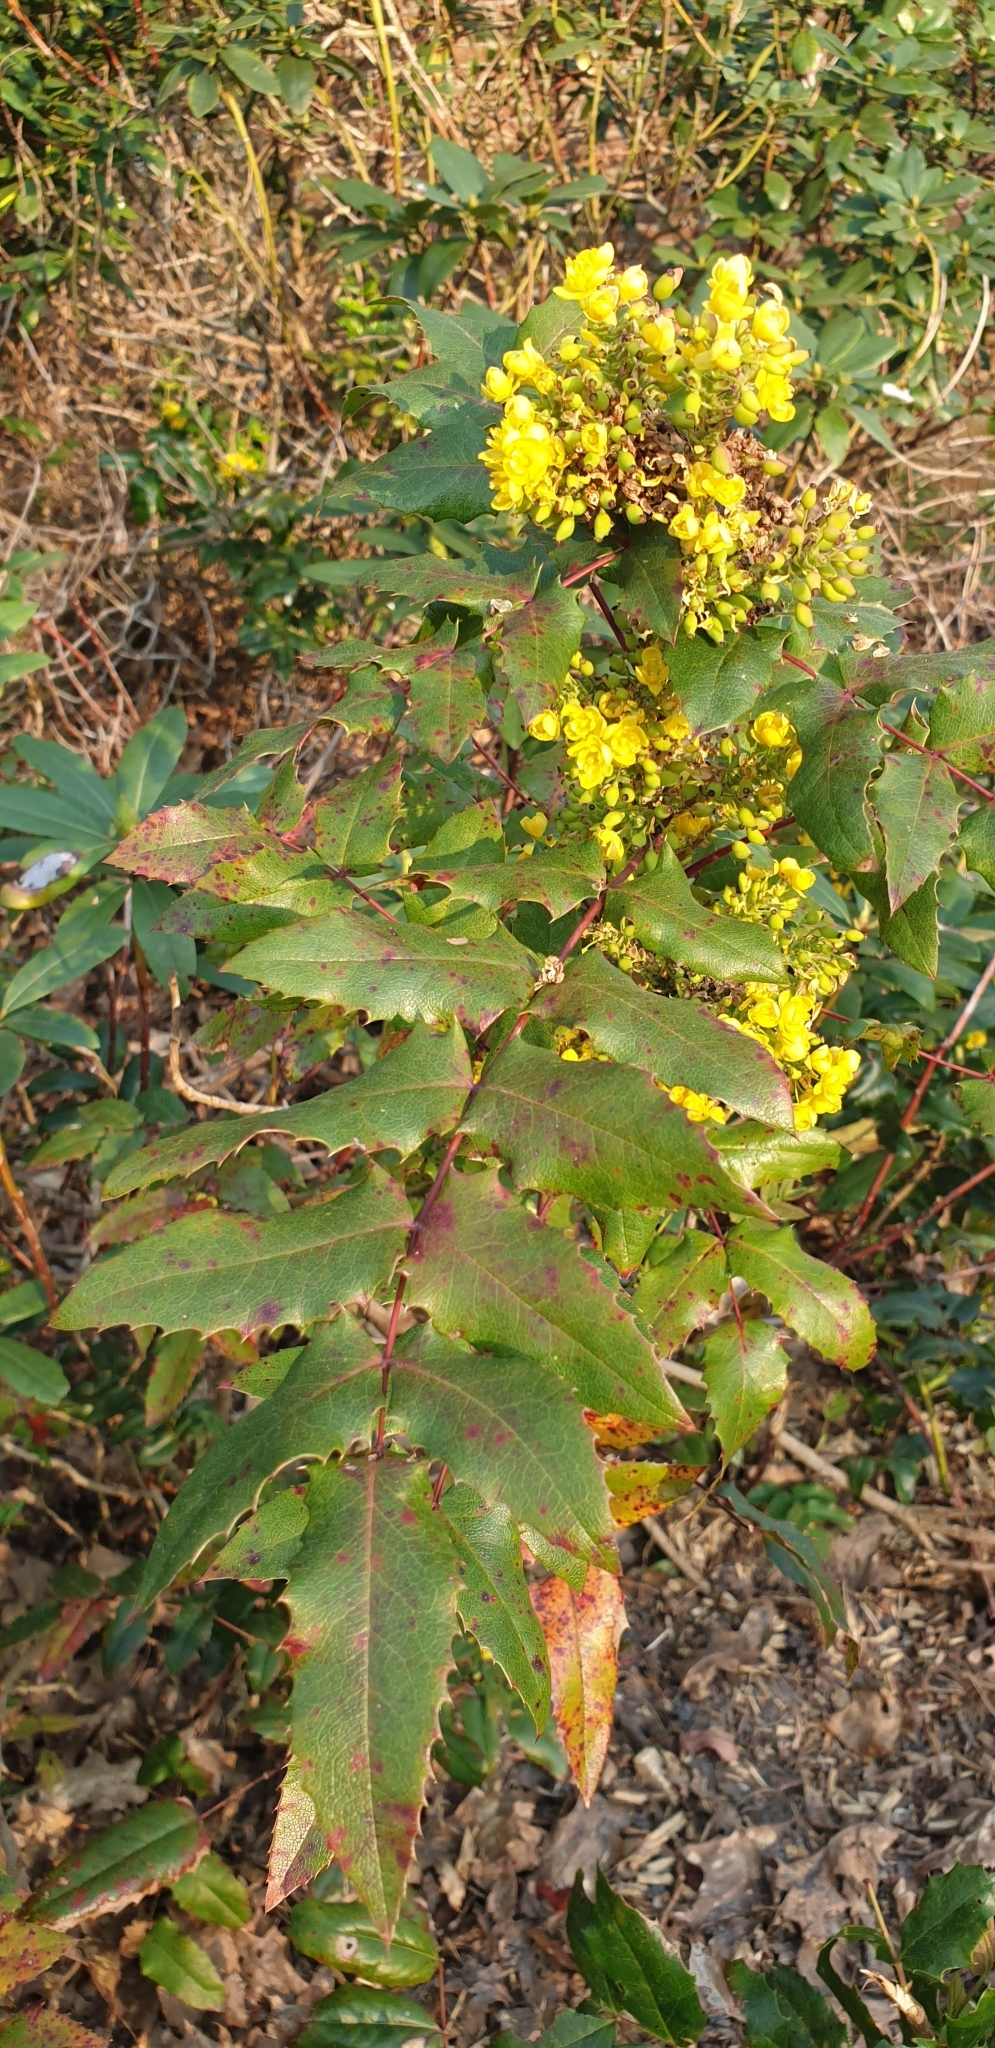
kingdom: Plantae
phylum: Tracheophyta
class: Magnoliopsida
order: Ranunculales
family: Berberidaceae
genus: Mahonia
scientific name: Mahonia aquifolium
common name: Oregon-grape
